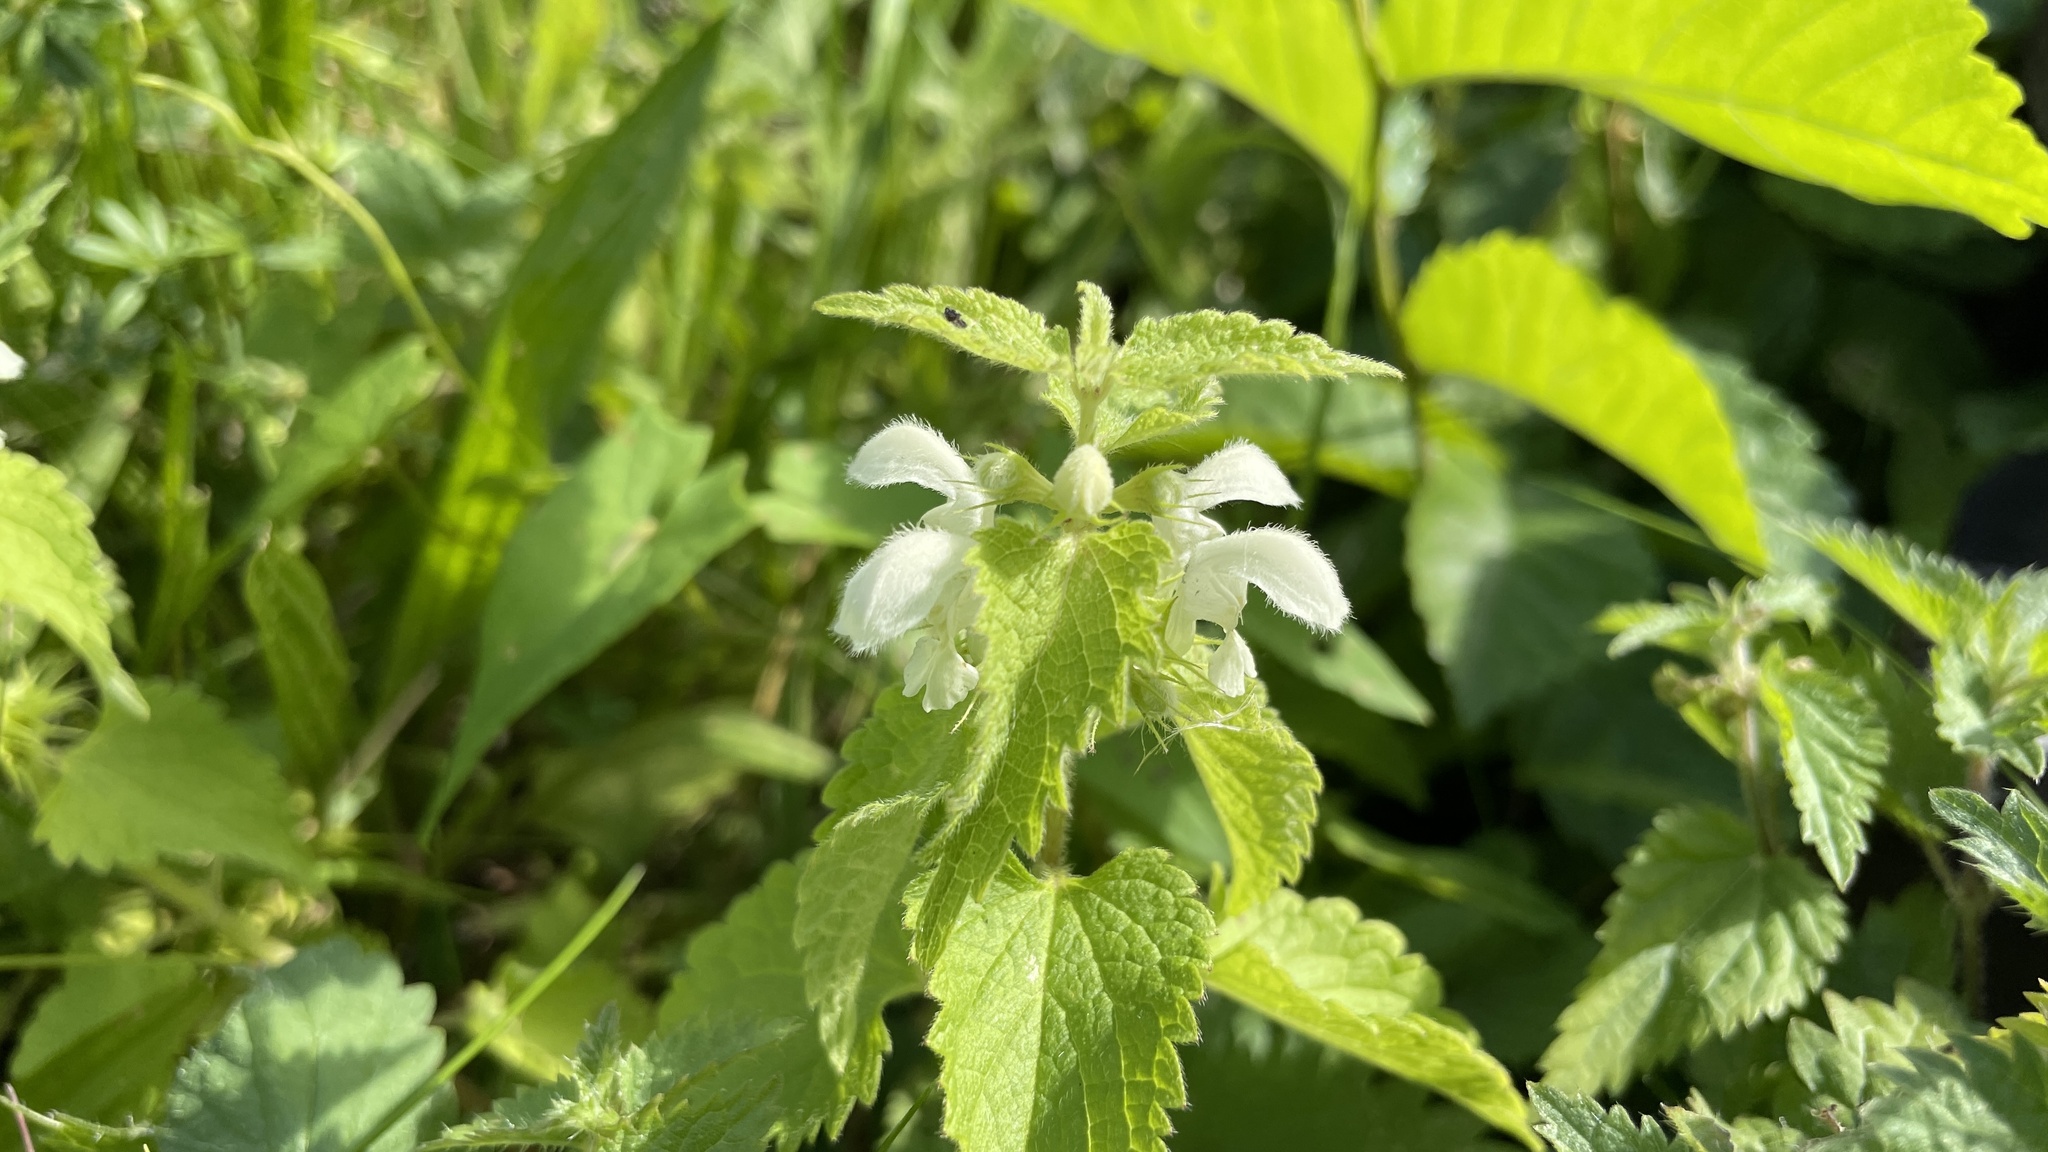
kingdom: Plantae
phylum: Tracheophyta
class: Magnoliopsida
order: Lamiales
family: Lamiaceae
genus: Lamium
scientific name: Lamium album
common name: White dead-nettle
